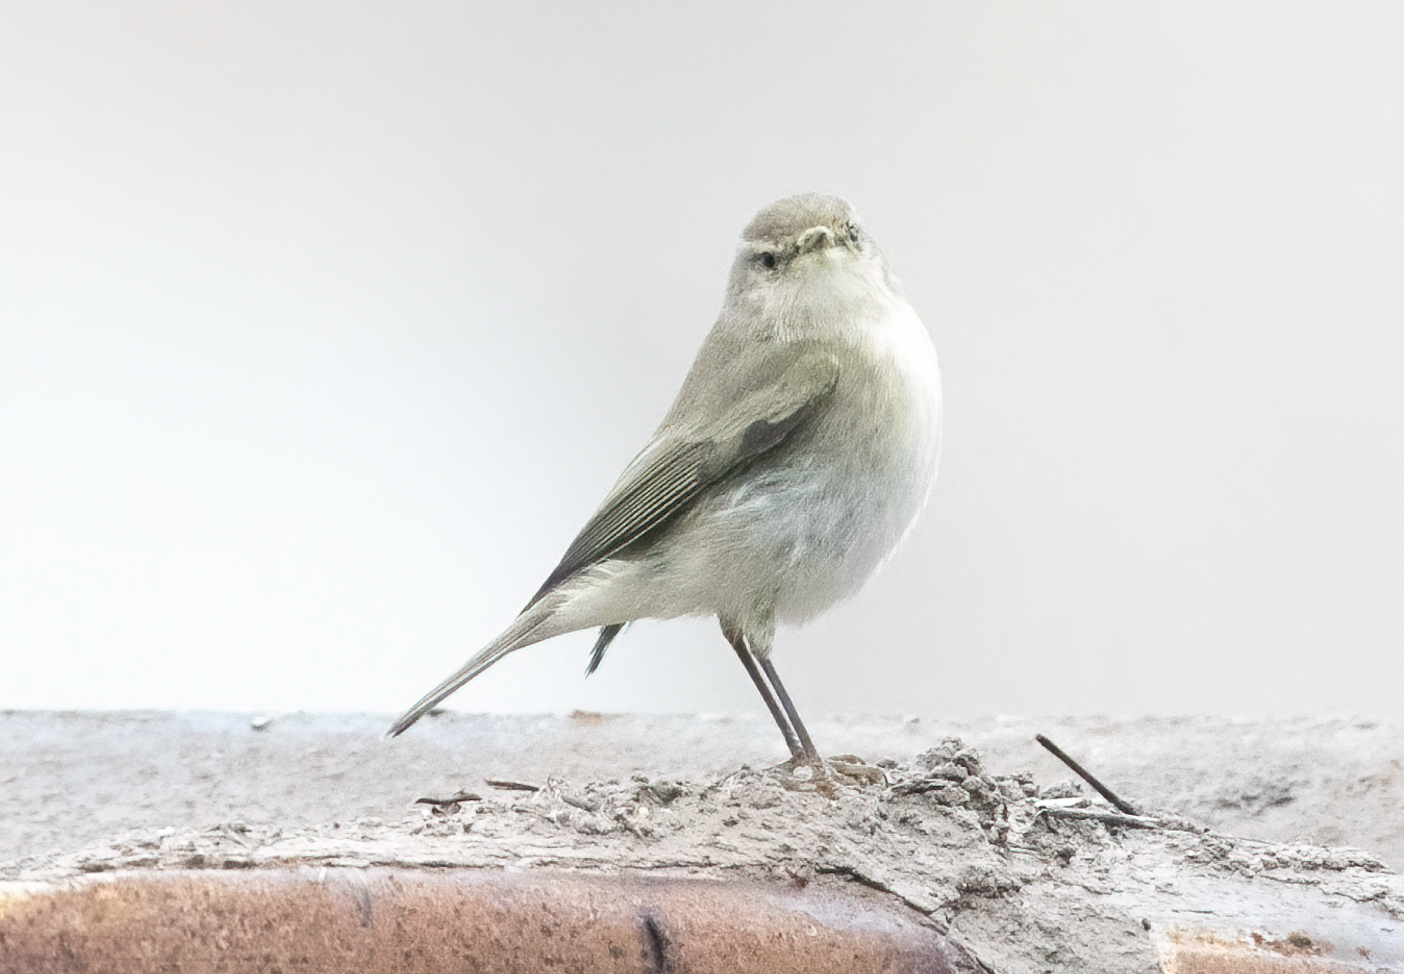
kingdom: Animalia
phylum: Chordata
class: Aves
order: Passeriformes
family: Phylloscopidae
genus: Phylloscopus
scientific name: Phylloscopus collybita
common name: Common chiffchaff
